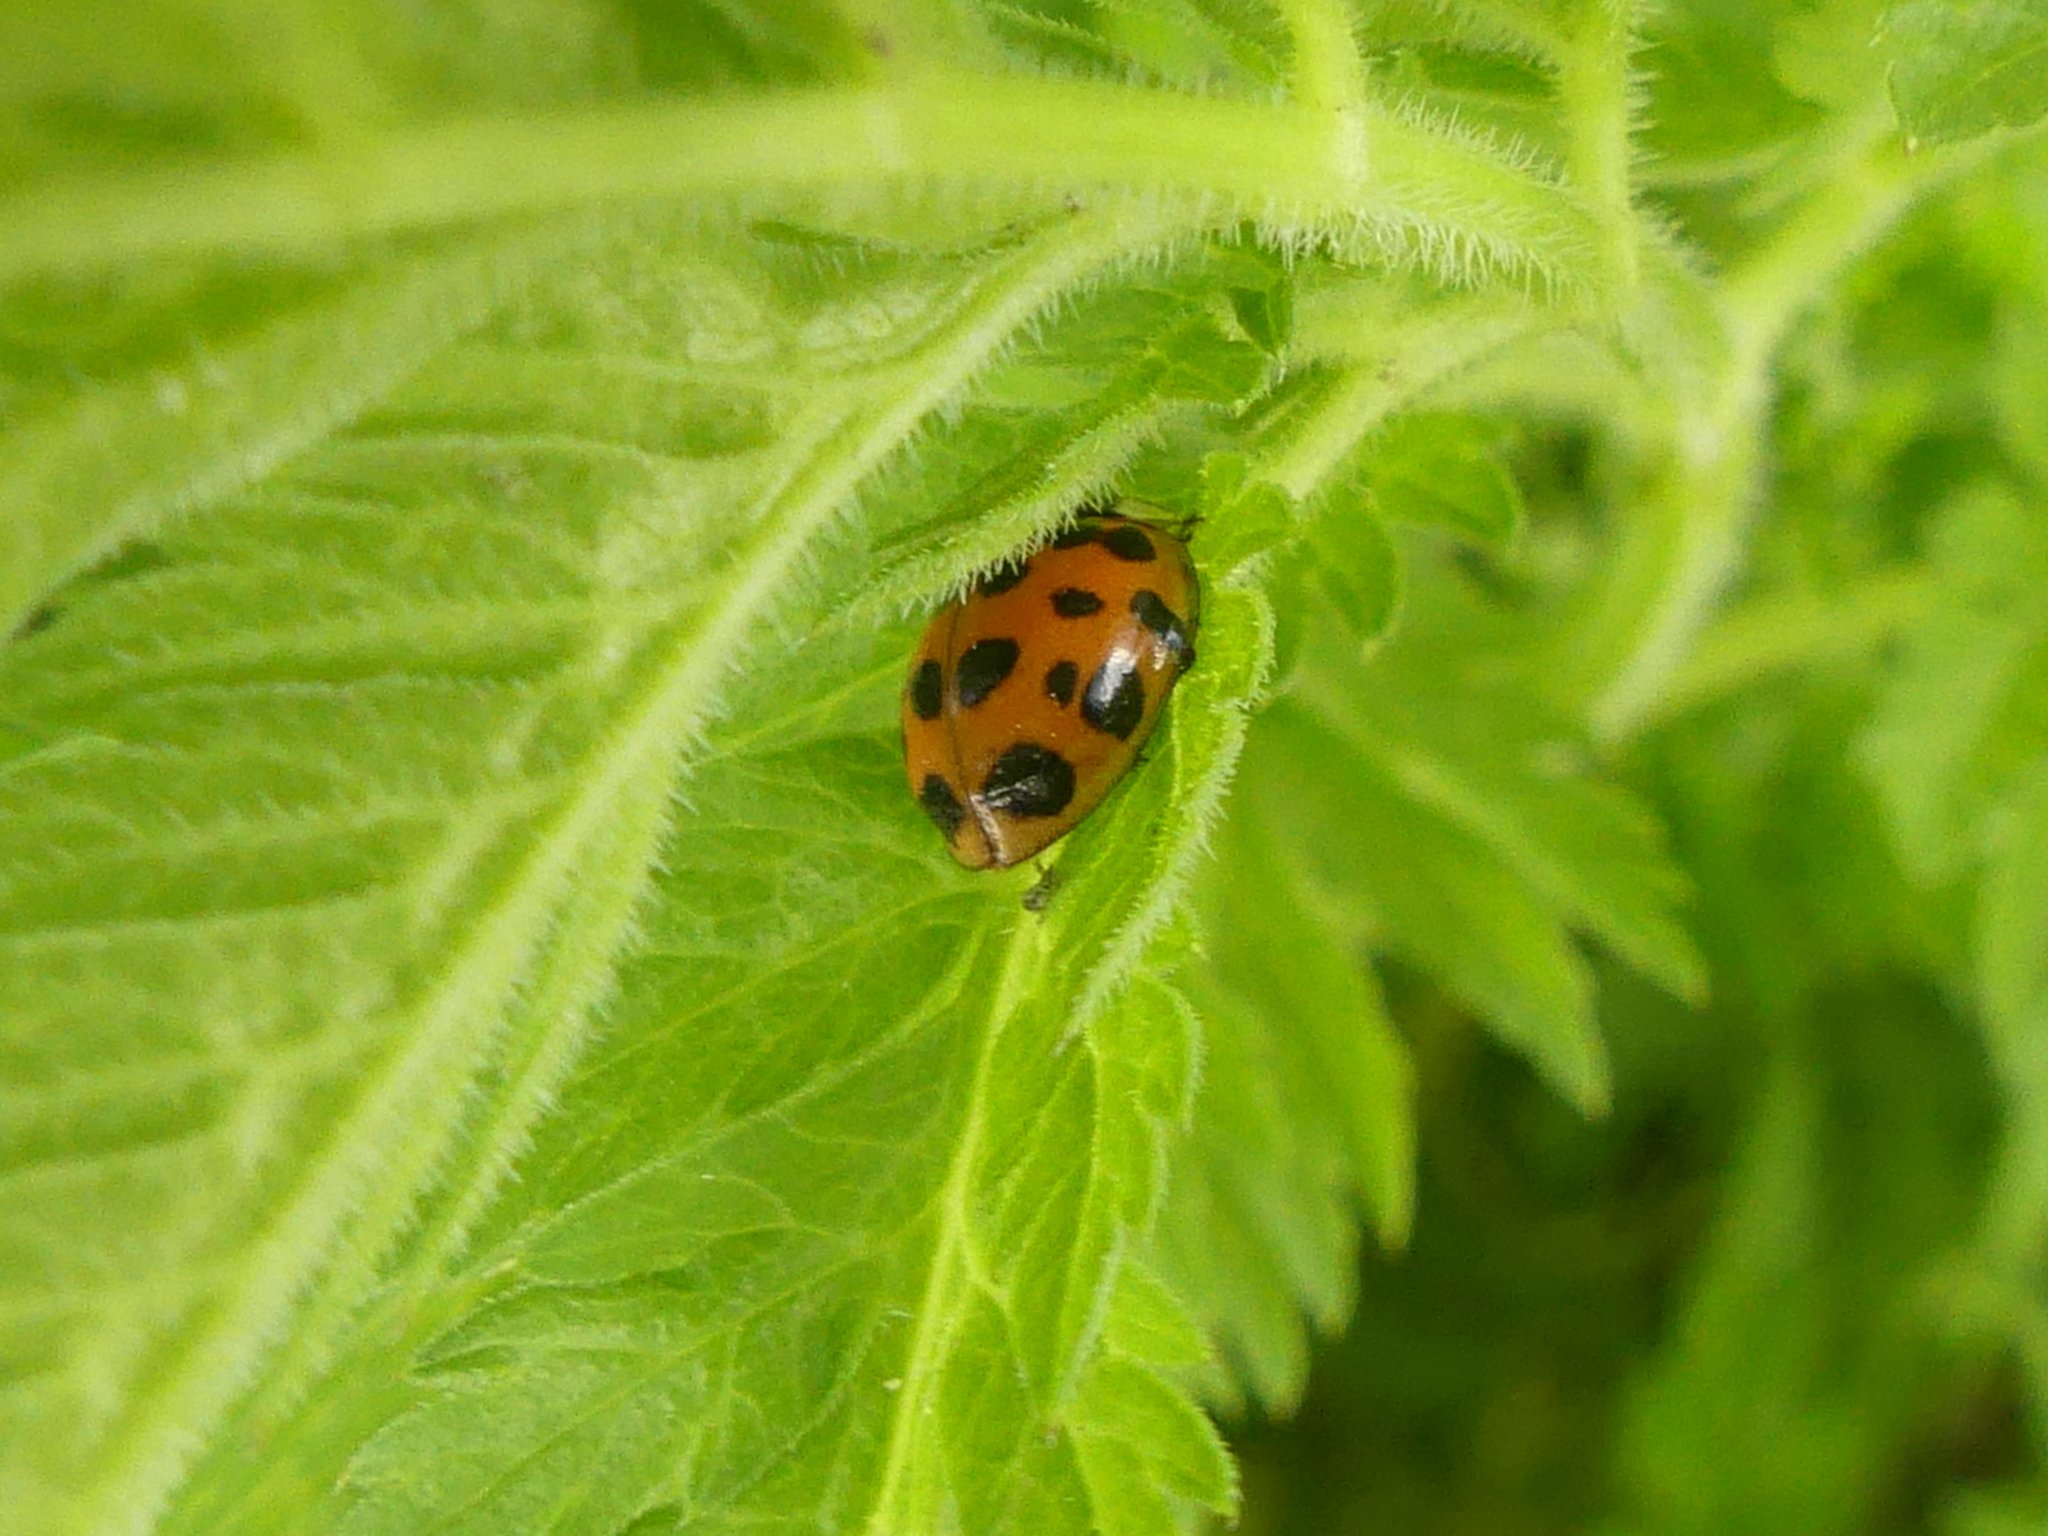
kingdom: Animalia
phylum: Arthropoda
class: Insecta
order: Coleoptera
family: Coccinellidae
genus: Harmonia
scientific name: Harmonia axyridis
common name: Harlequin ladybird
